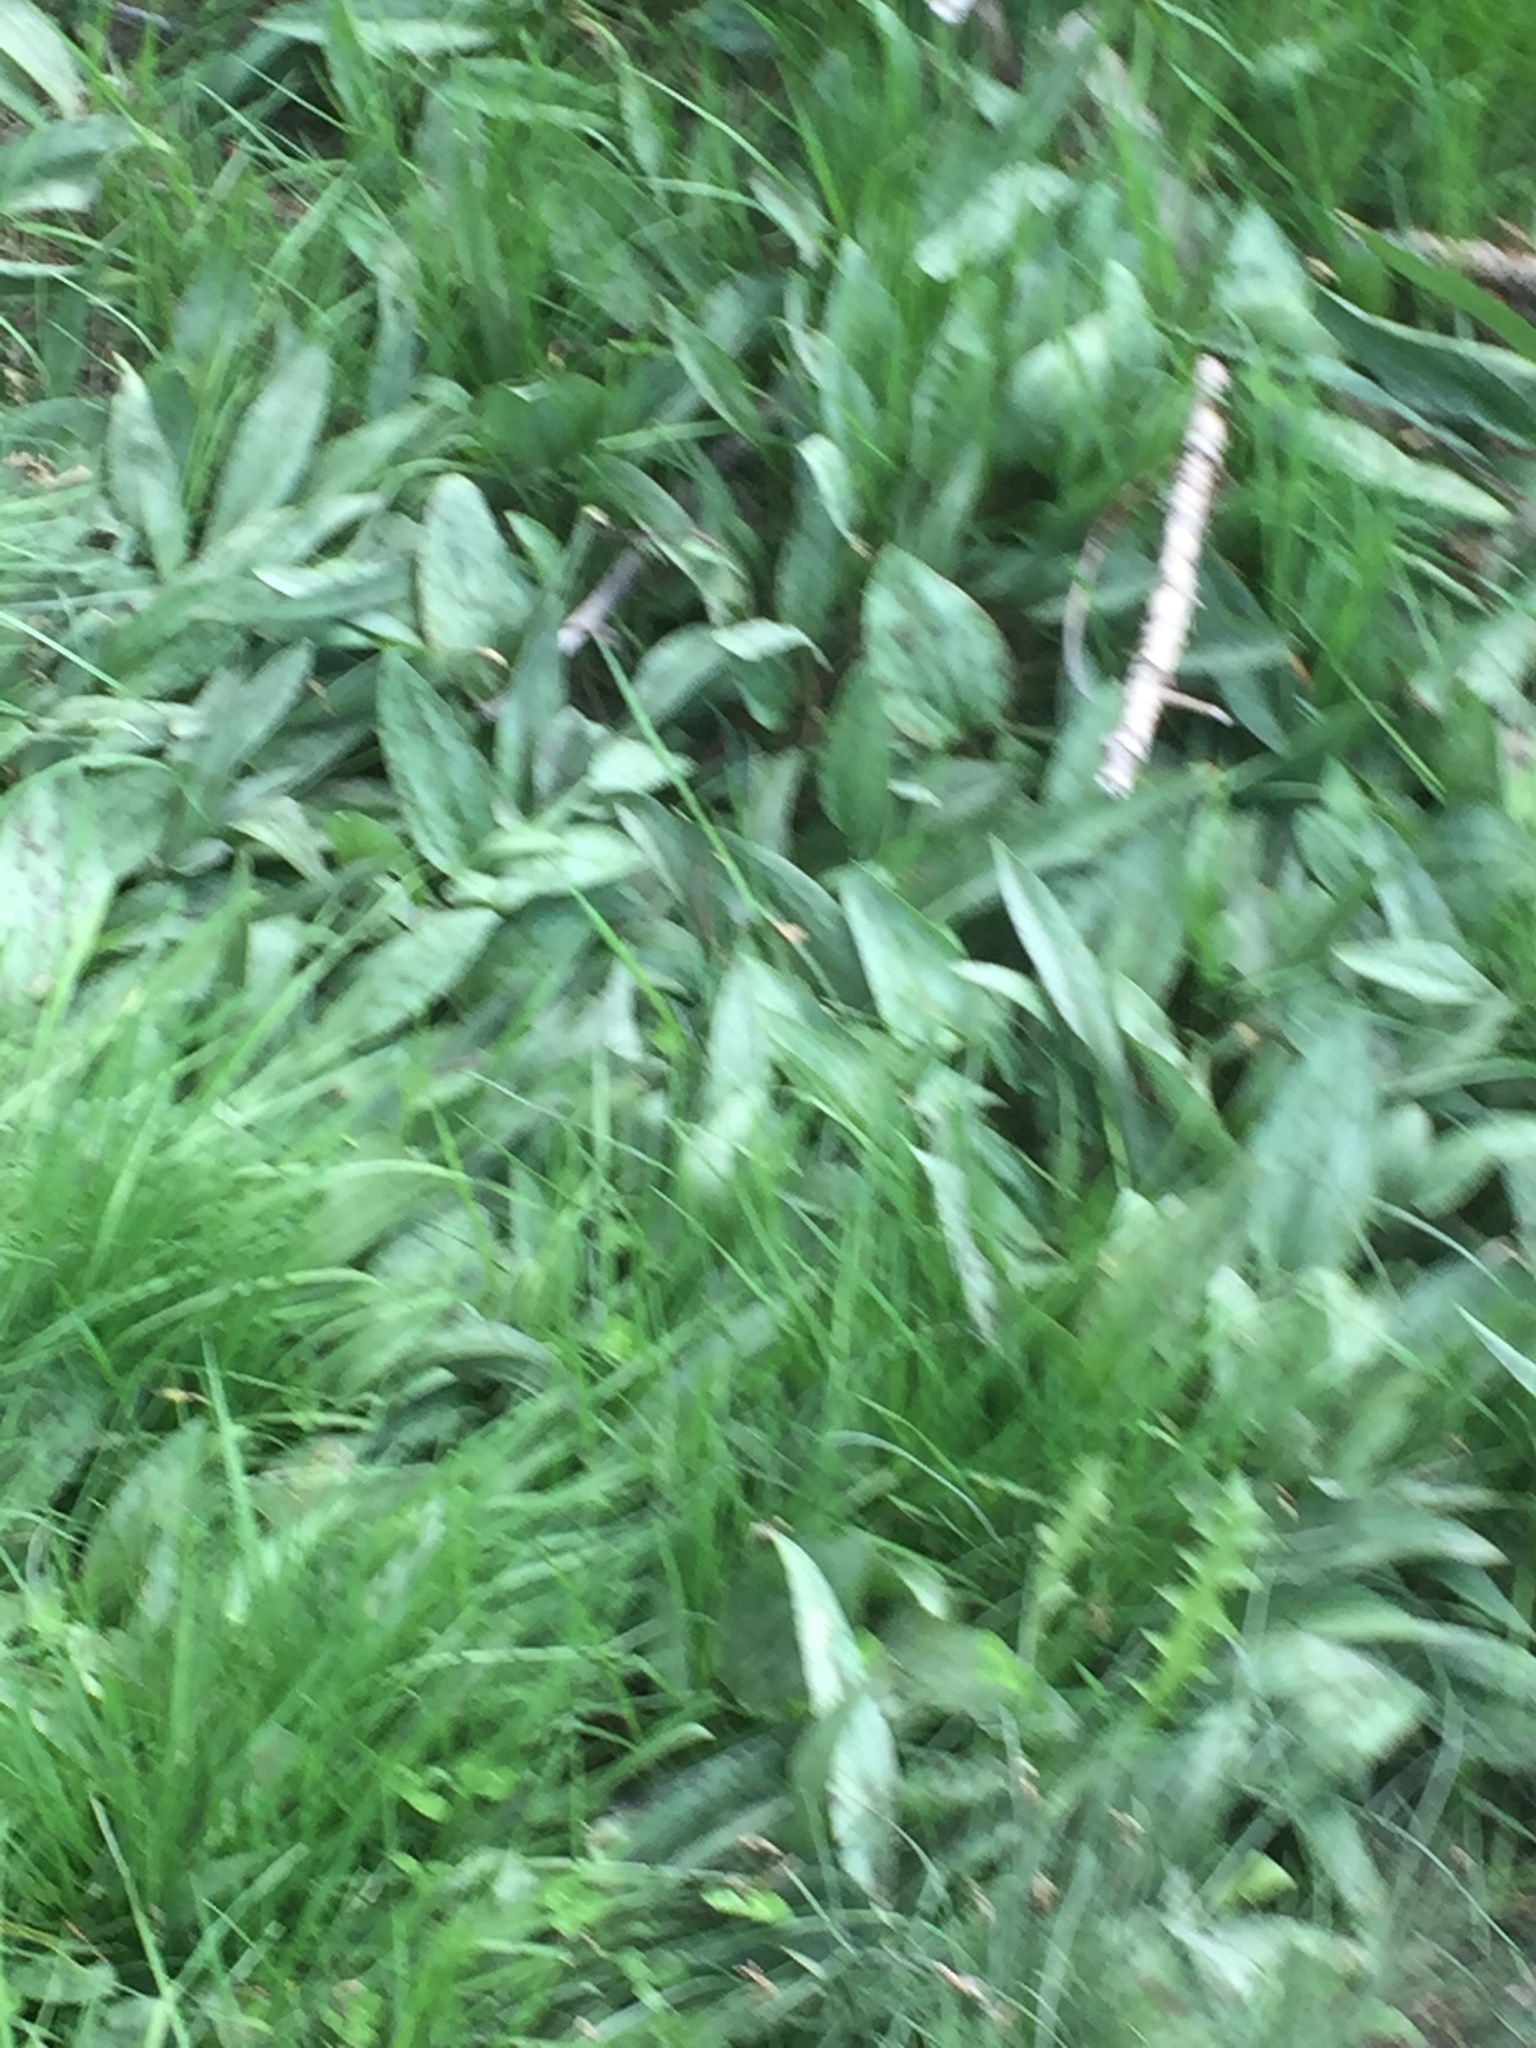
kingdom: Plantae
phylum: Tracheophyta
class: Liliopsida
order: Liliales
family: Liliaceae
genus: Erythronium
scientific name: Erythronium dens-canis
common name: Dog's-tooth-violet
